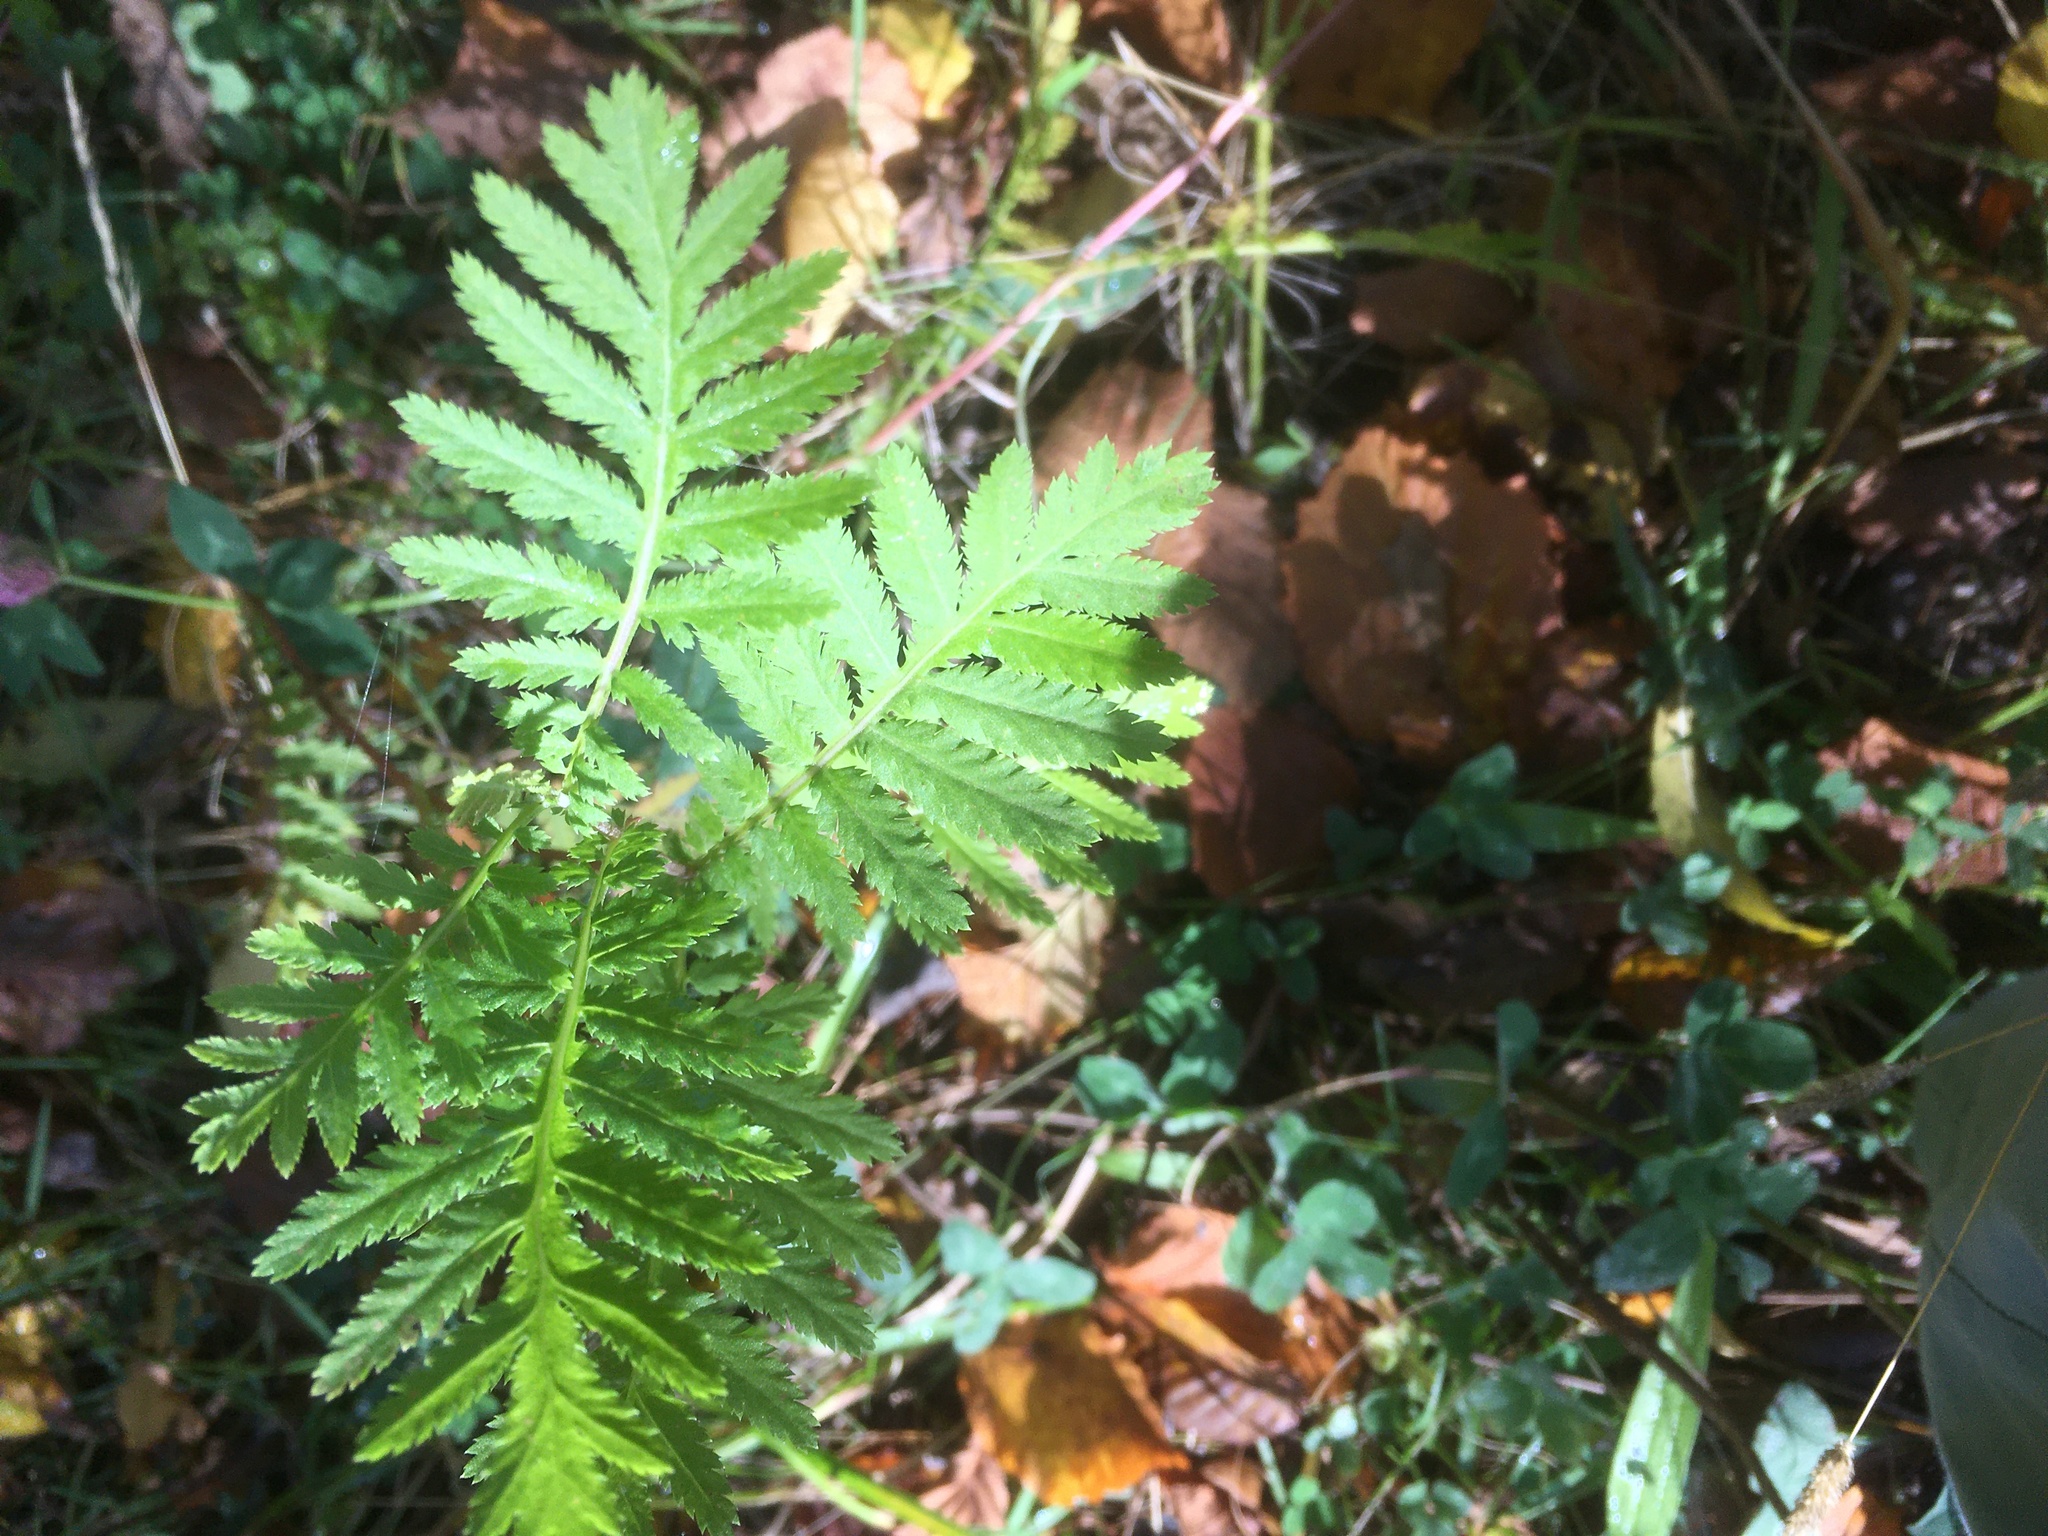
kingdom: Plantae
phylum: Tracheophyta
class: Magnoliopsida
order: Asterales
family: Asteraceae
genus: Tanacetum
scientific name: Tanacetum vulgare
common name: Common tansy
